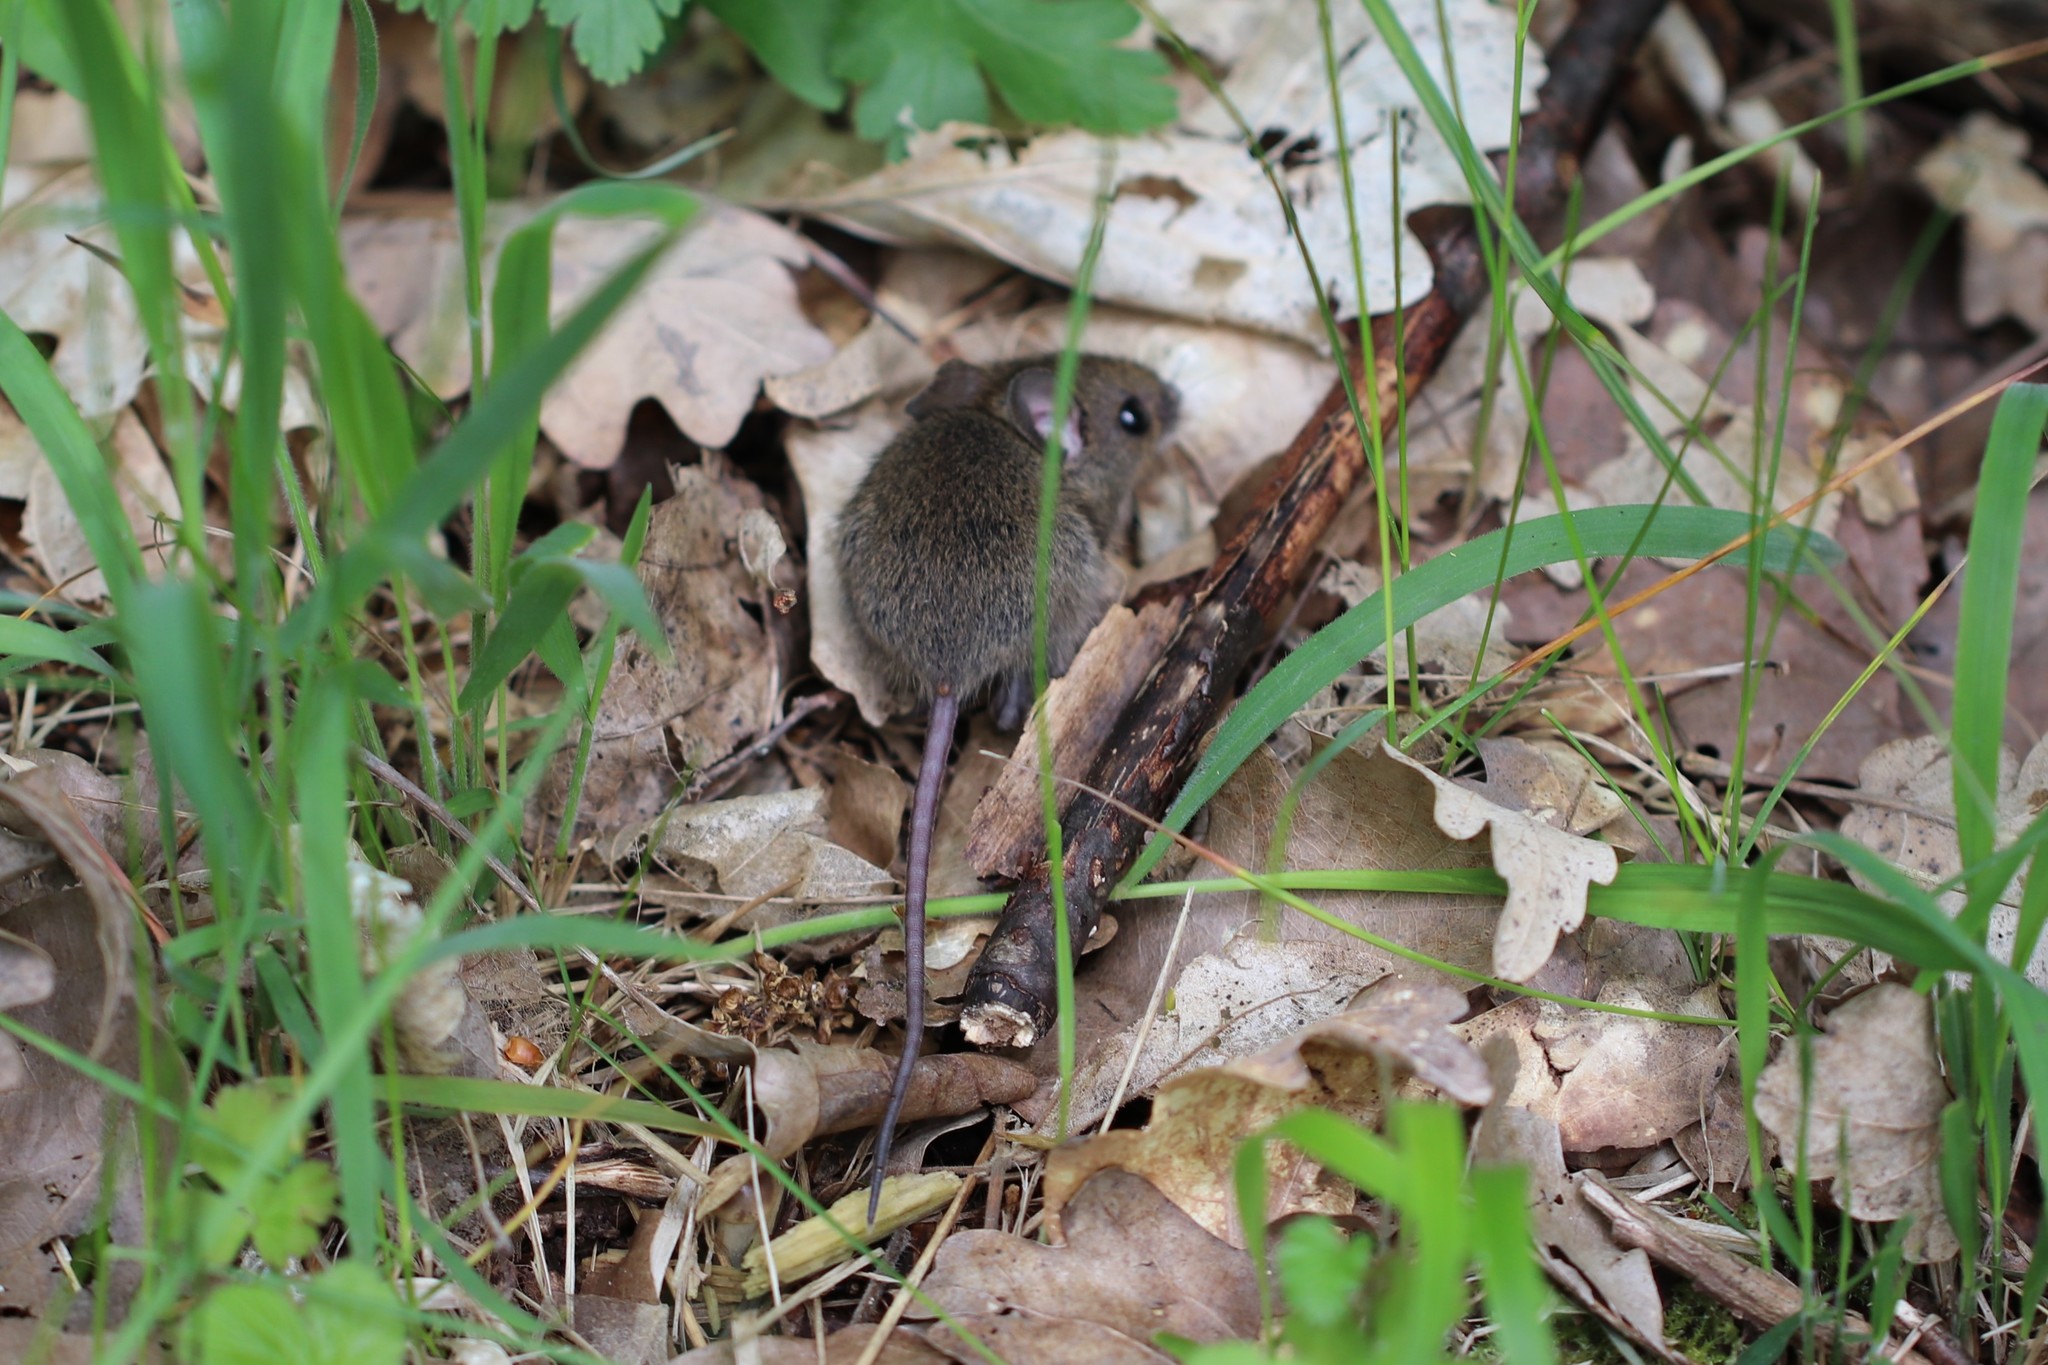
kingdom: Animalia
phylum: Chordata
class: Mammalia
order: Rodentia
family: Muridae
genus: Apodemus
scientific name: Apodemus sylvaticus
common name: Wood mouse
